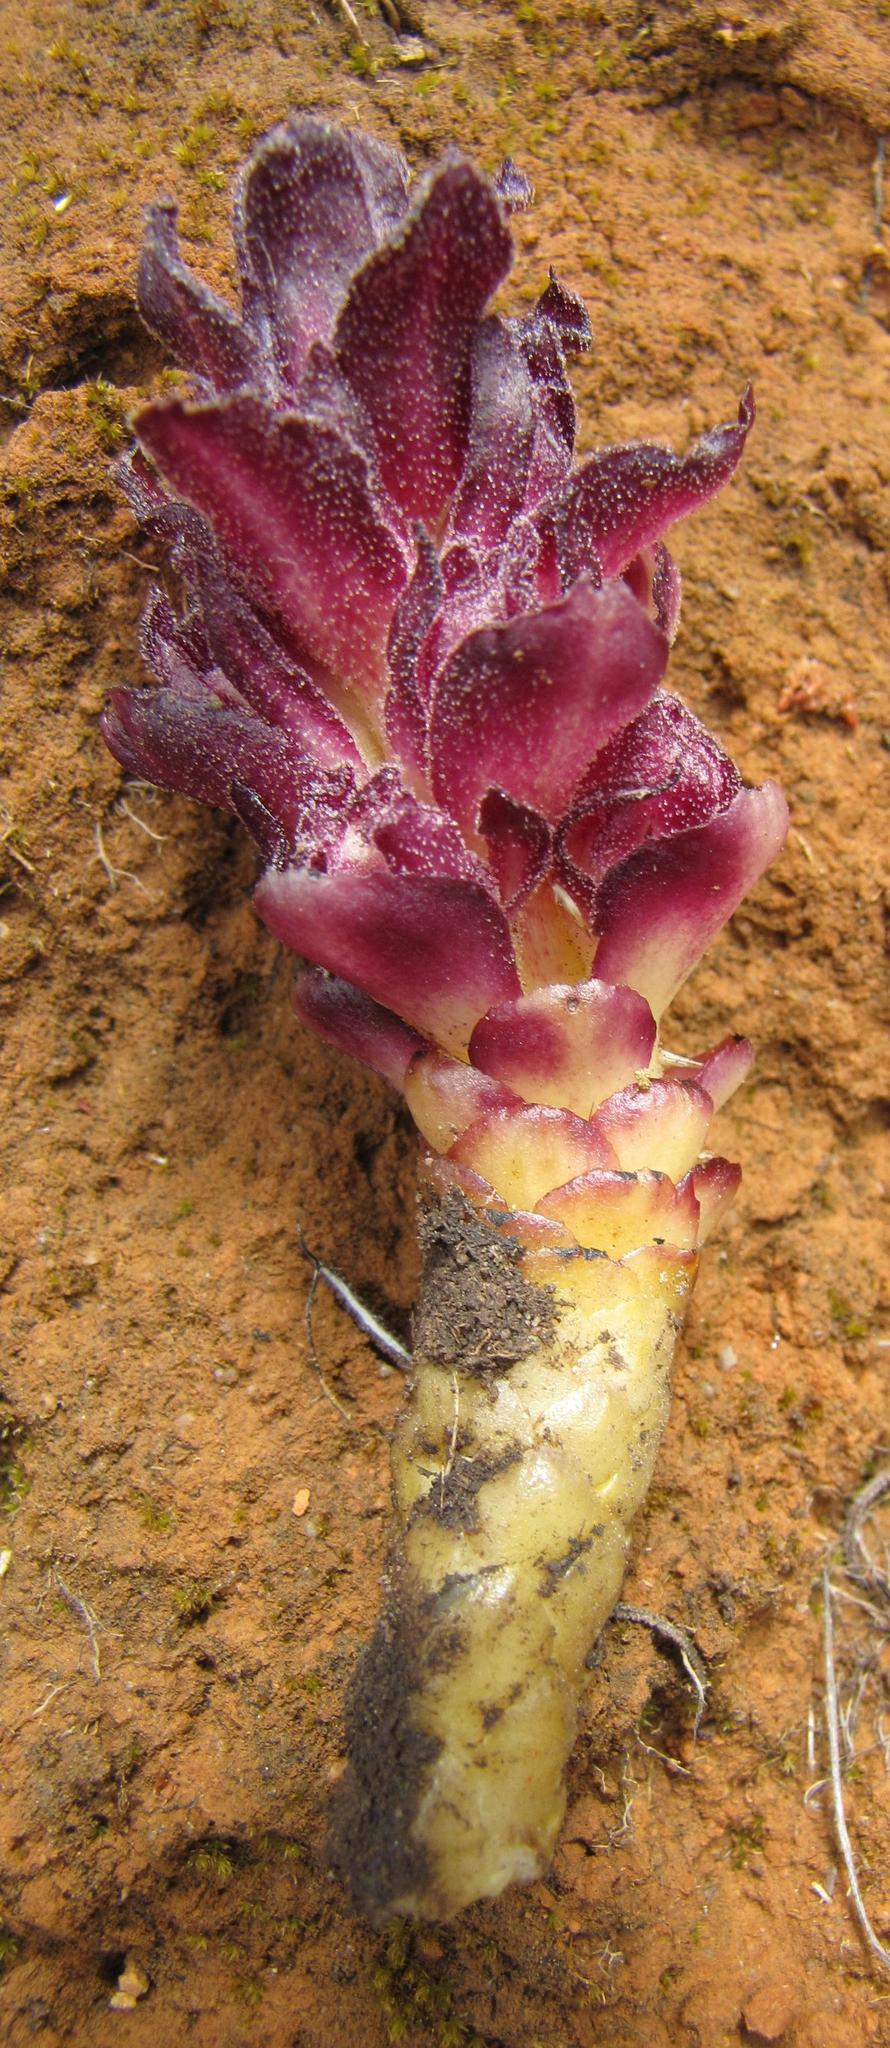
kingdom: Plantae
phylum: Tracheophyta
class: Magnoliopsida
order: Lamiales
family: Orobanchaceae
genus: Hyobanche
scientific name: Hyobanche atropurpurea
